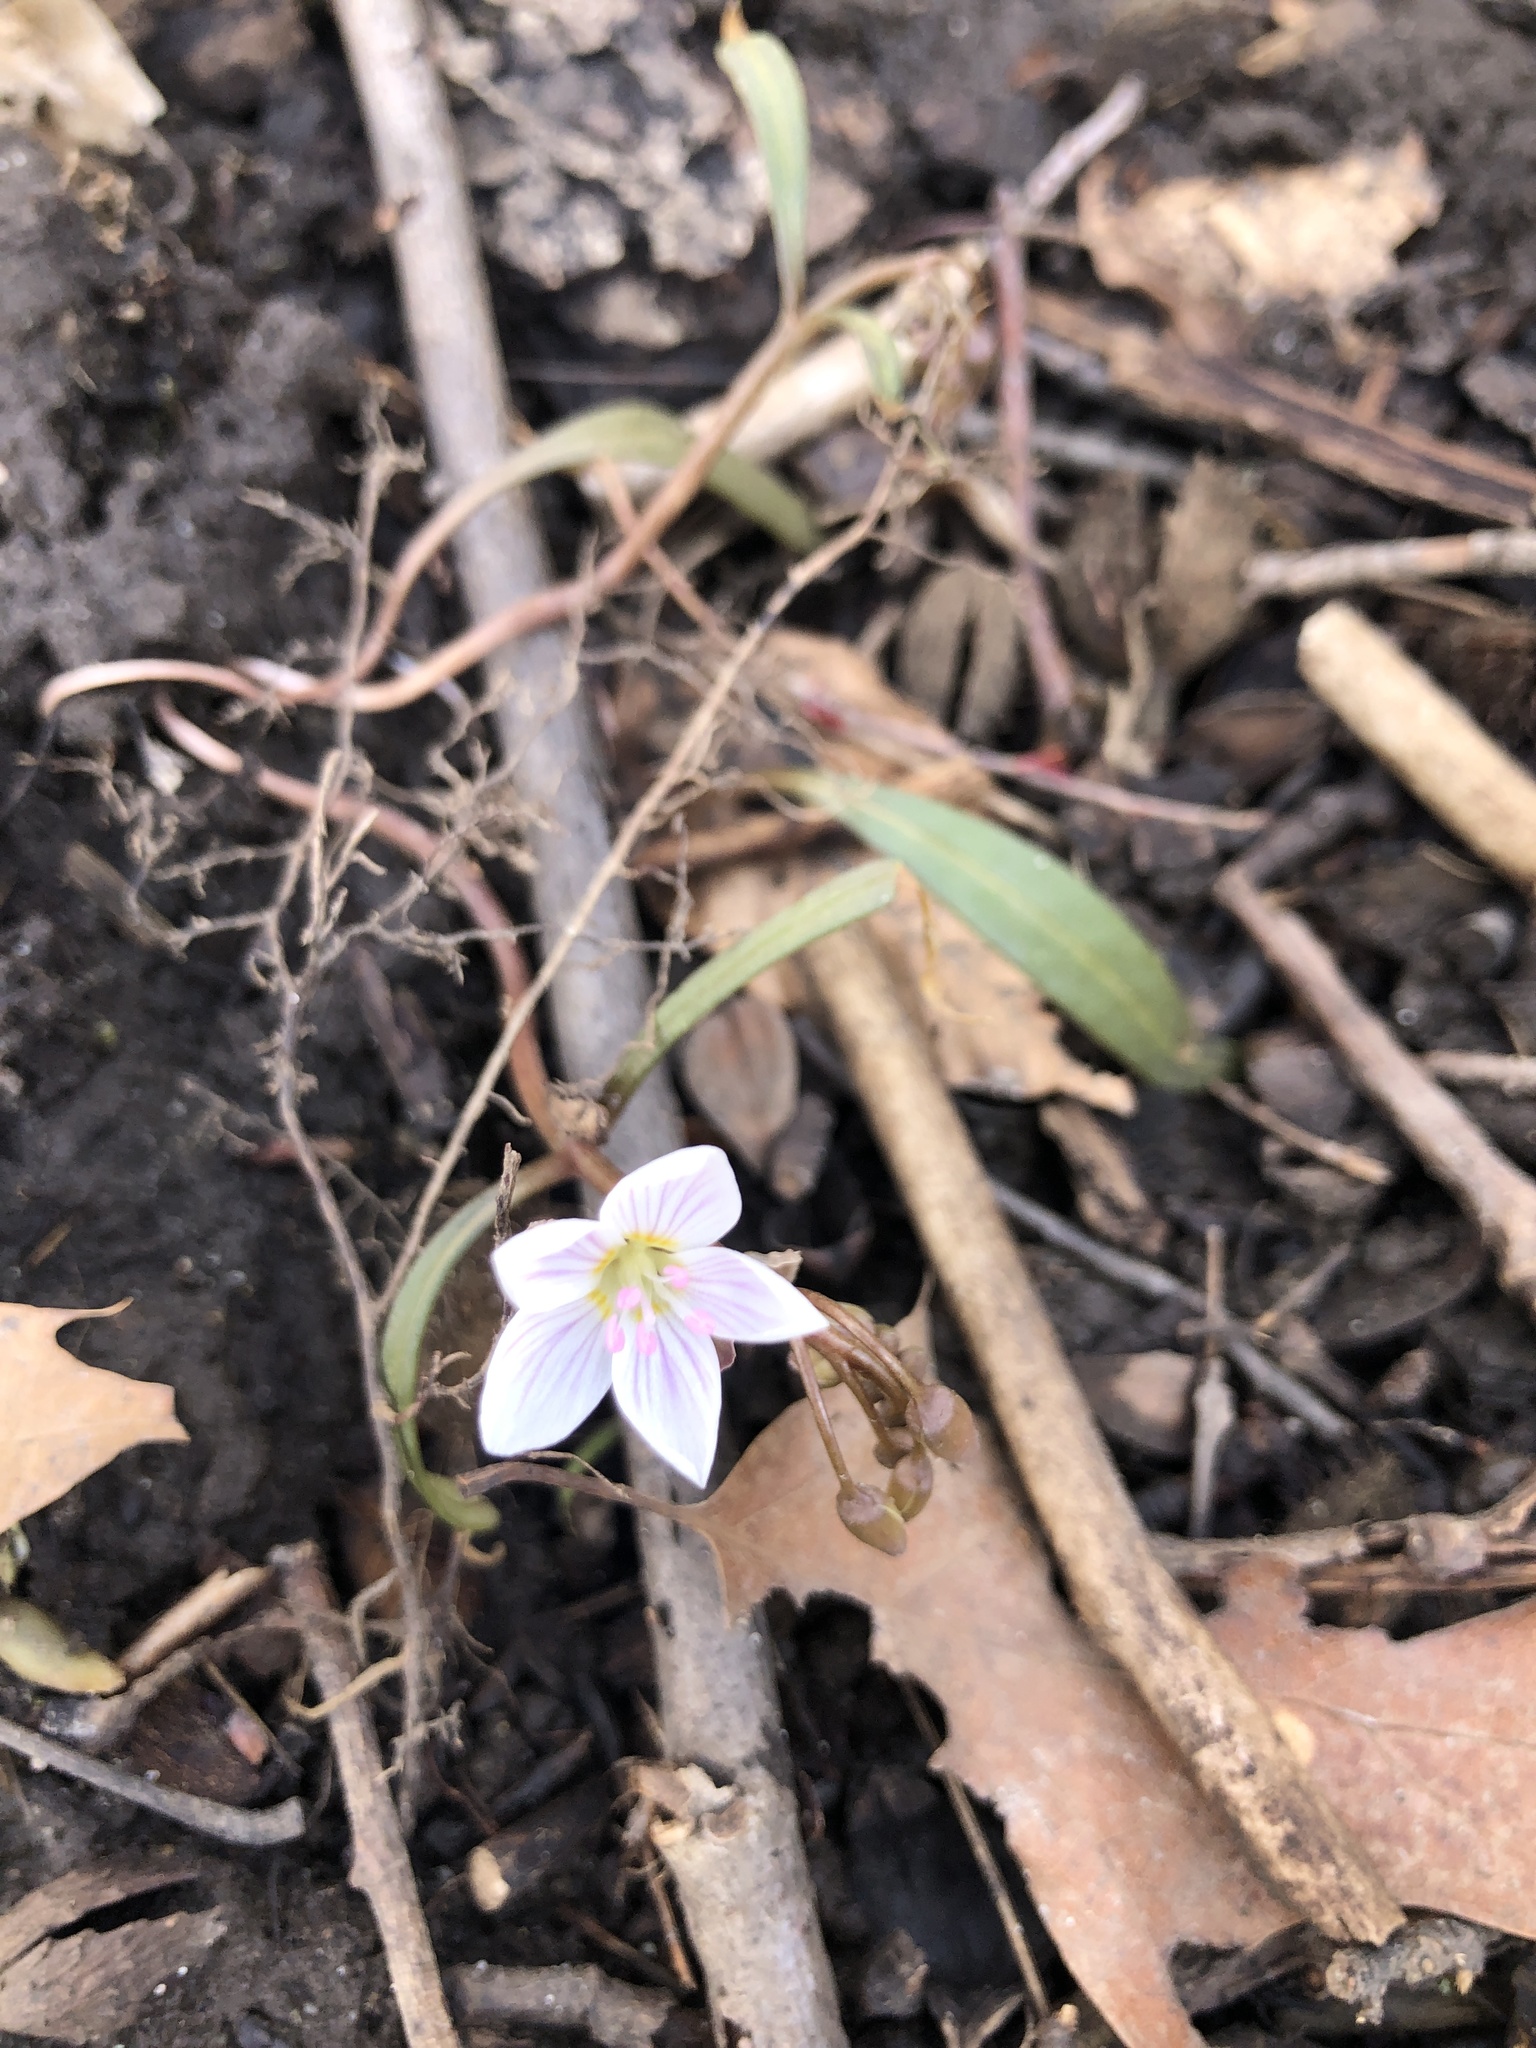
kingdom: Plantae
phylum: Tracheophyta
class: Magnoliopsida
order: Caryophyllales
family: Montiaceae
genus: Claytonia
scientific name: Claytonia virginica
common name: Virginia springbeauty
